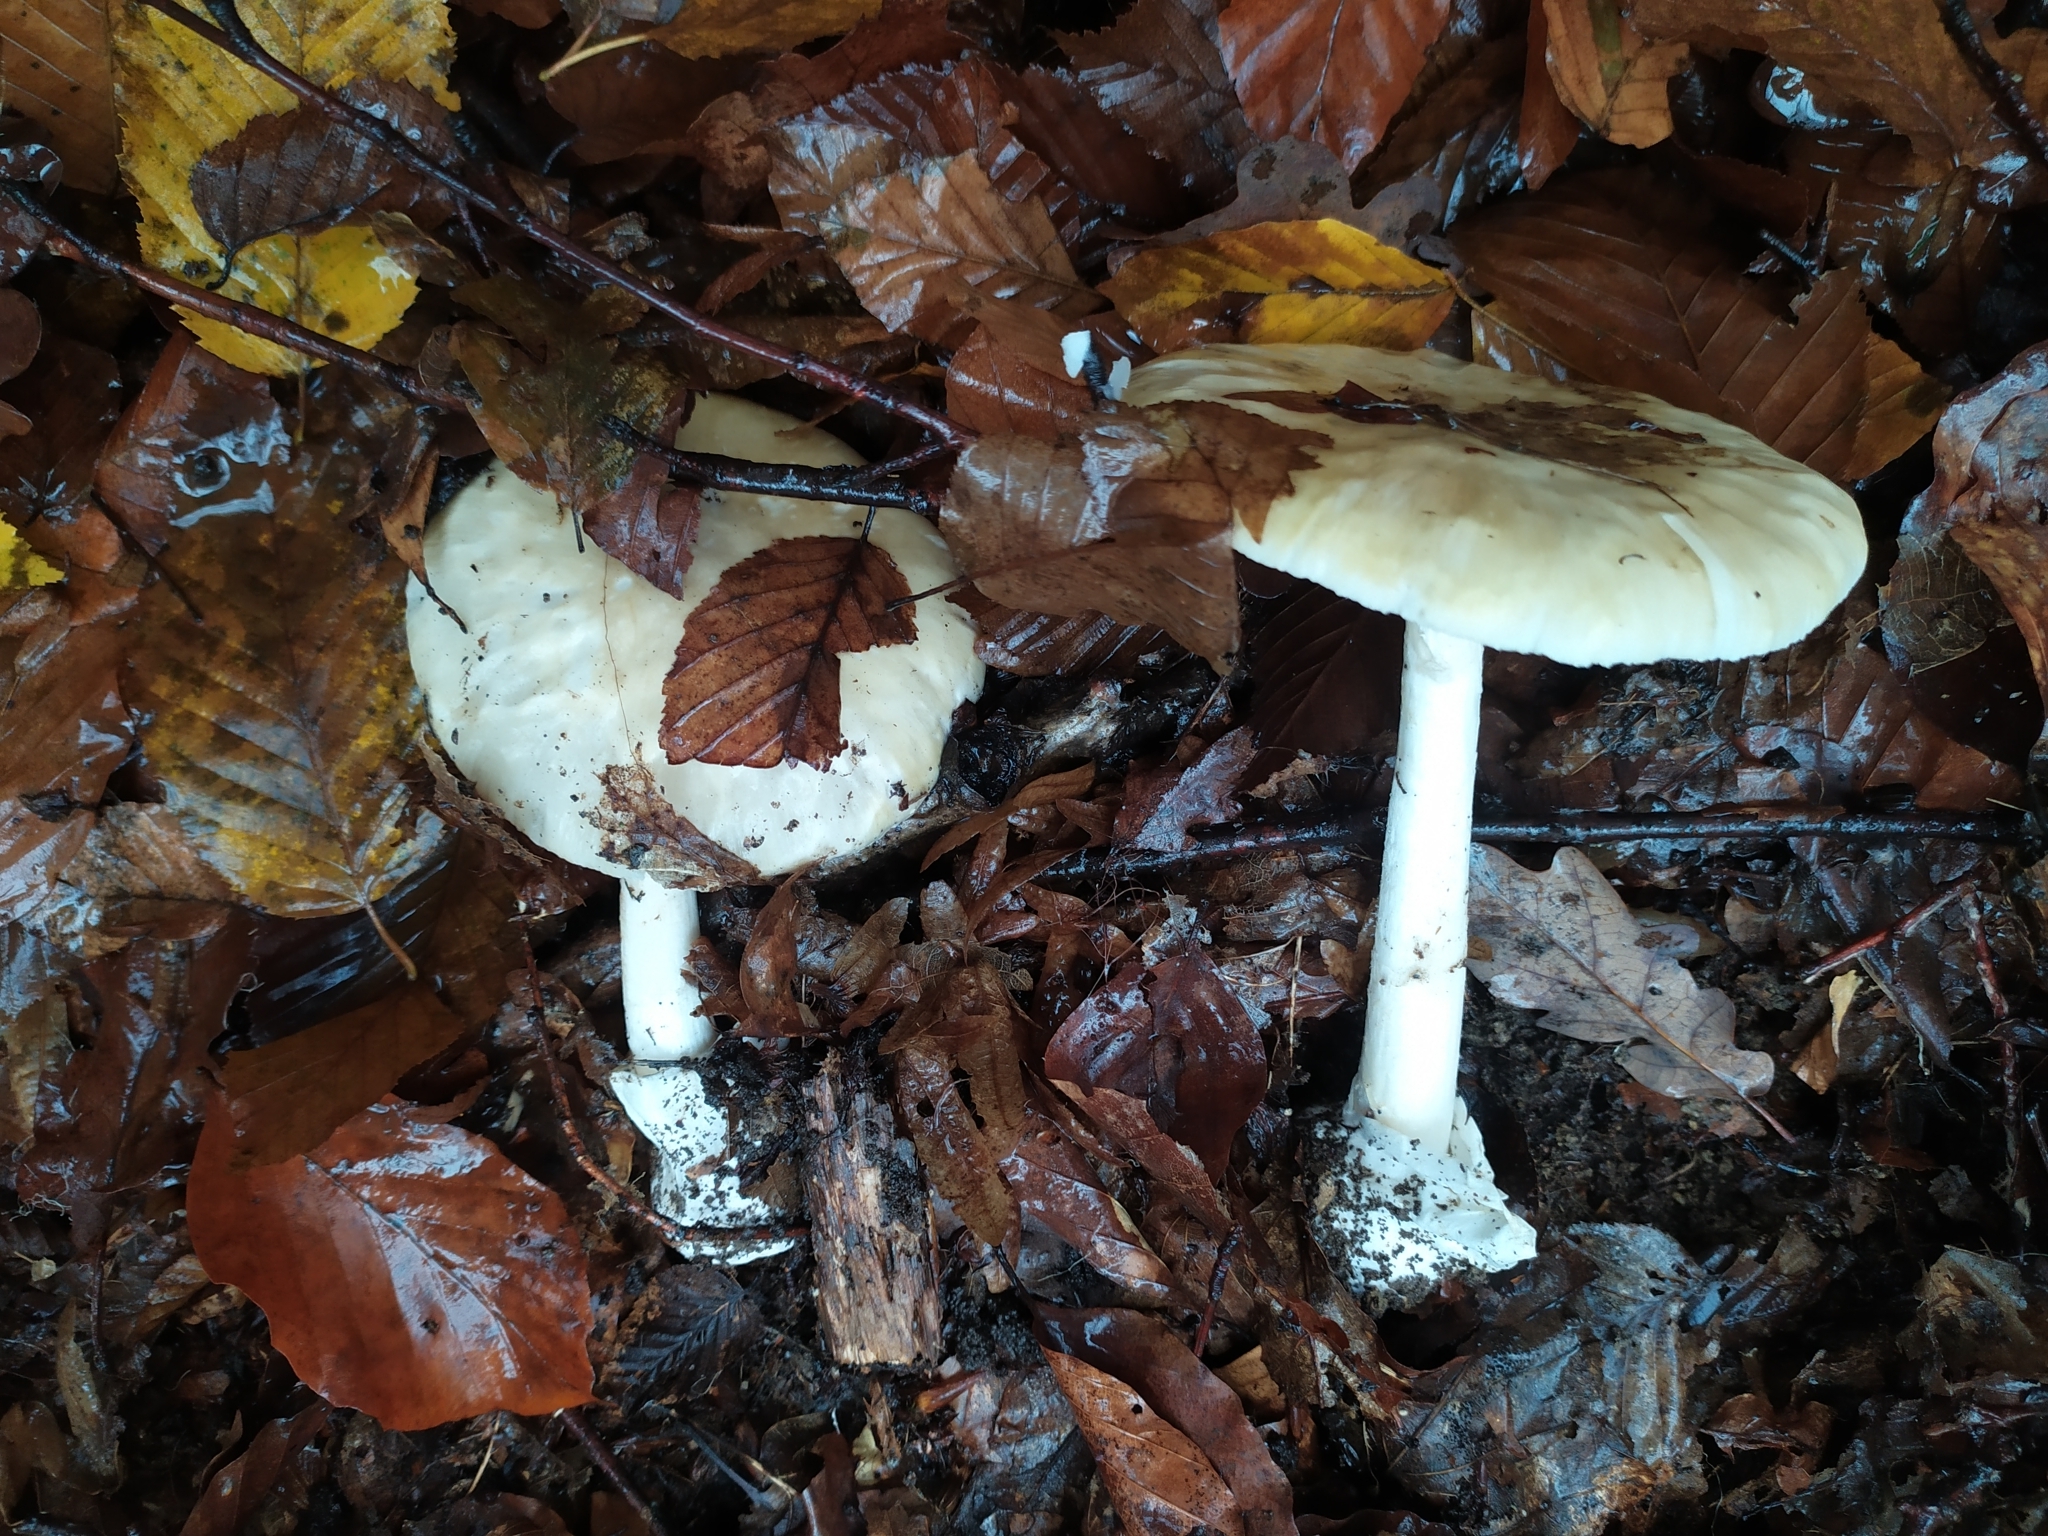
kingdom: Fungi
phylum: Basidiomycota
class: Agaricomycetes
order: Agaricales
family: Amanitaceae
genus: Amanita
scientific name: Amanita phalloides
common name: Death cap
